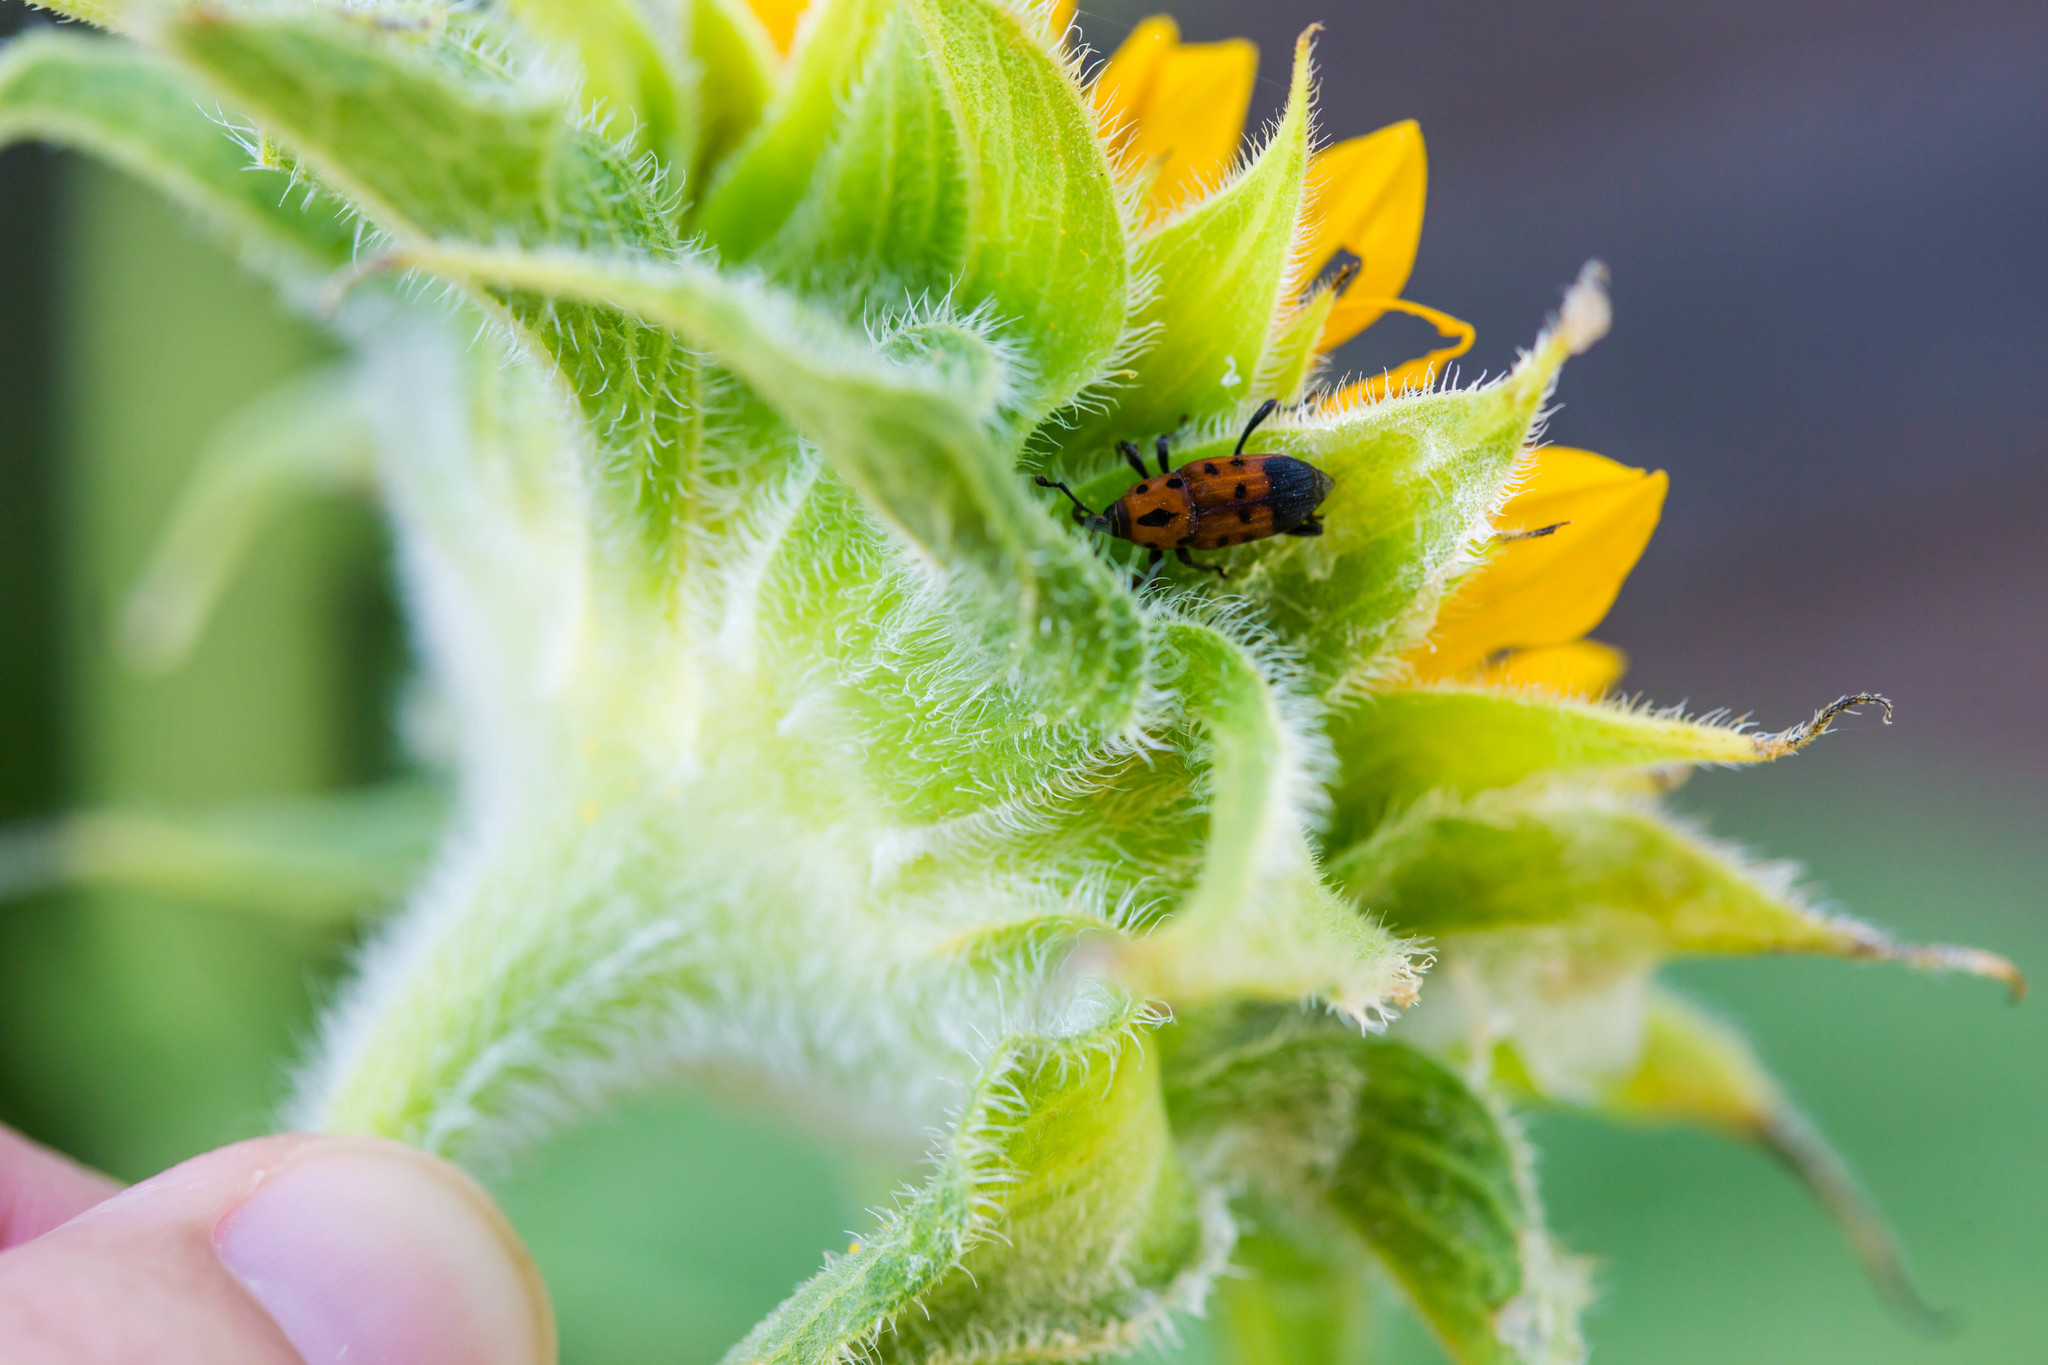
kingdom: Animalia
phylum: Arthropoda
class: Insecta
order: Coleoptera
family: Dryophthoridae
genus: Rhodobaenus
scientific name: Rhodobaenus quinquepunctatus
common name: Cocklebur weevil
